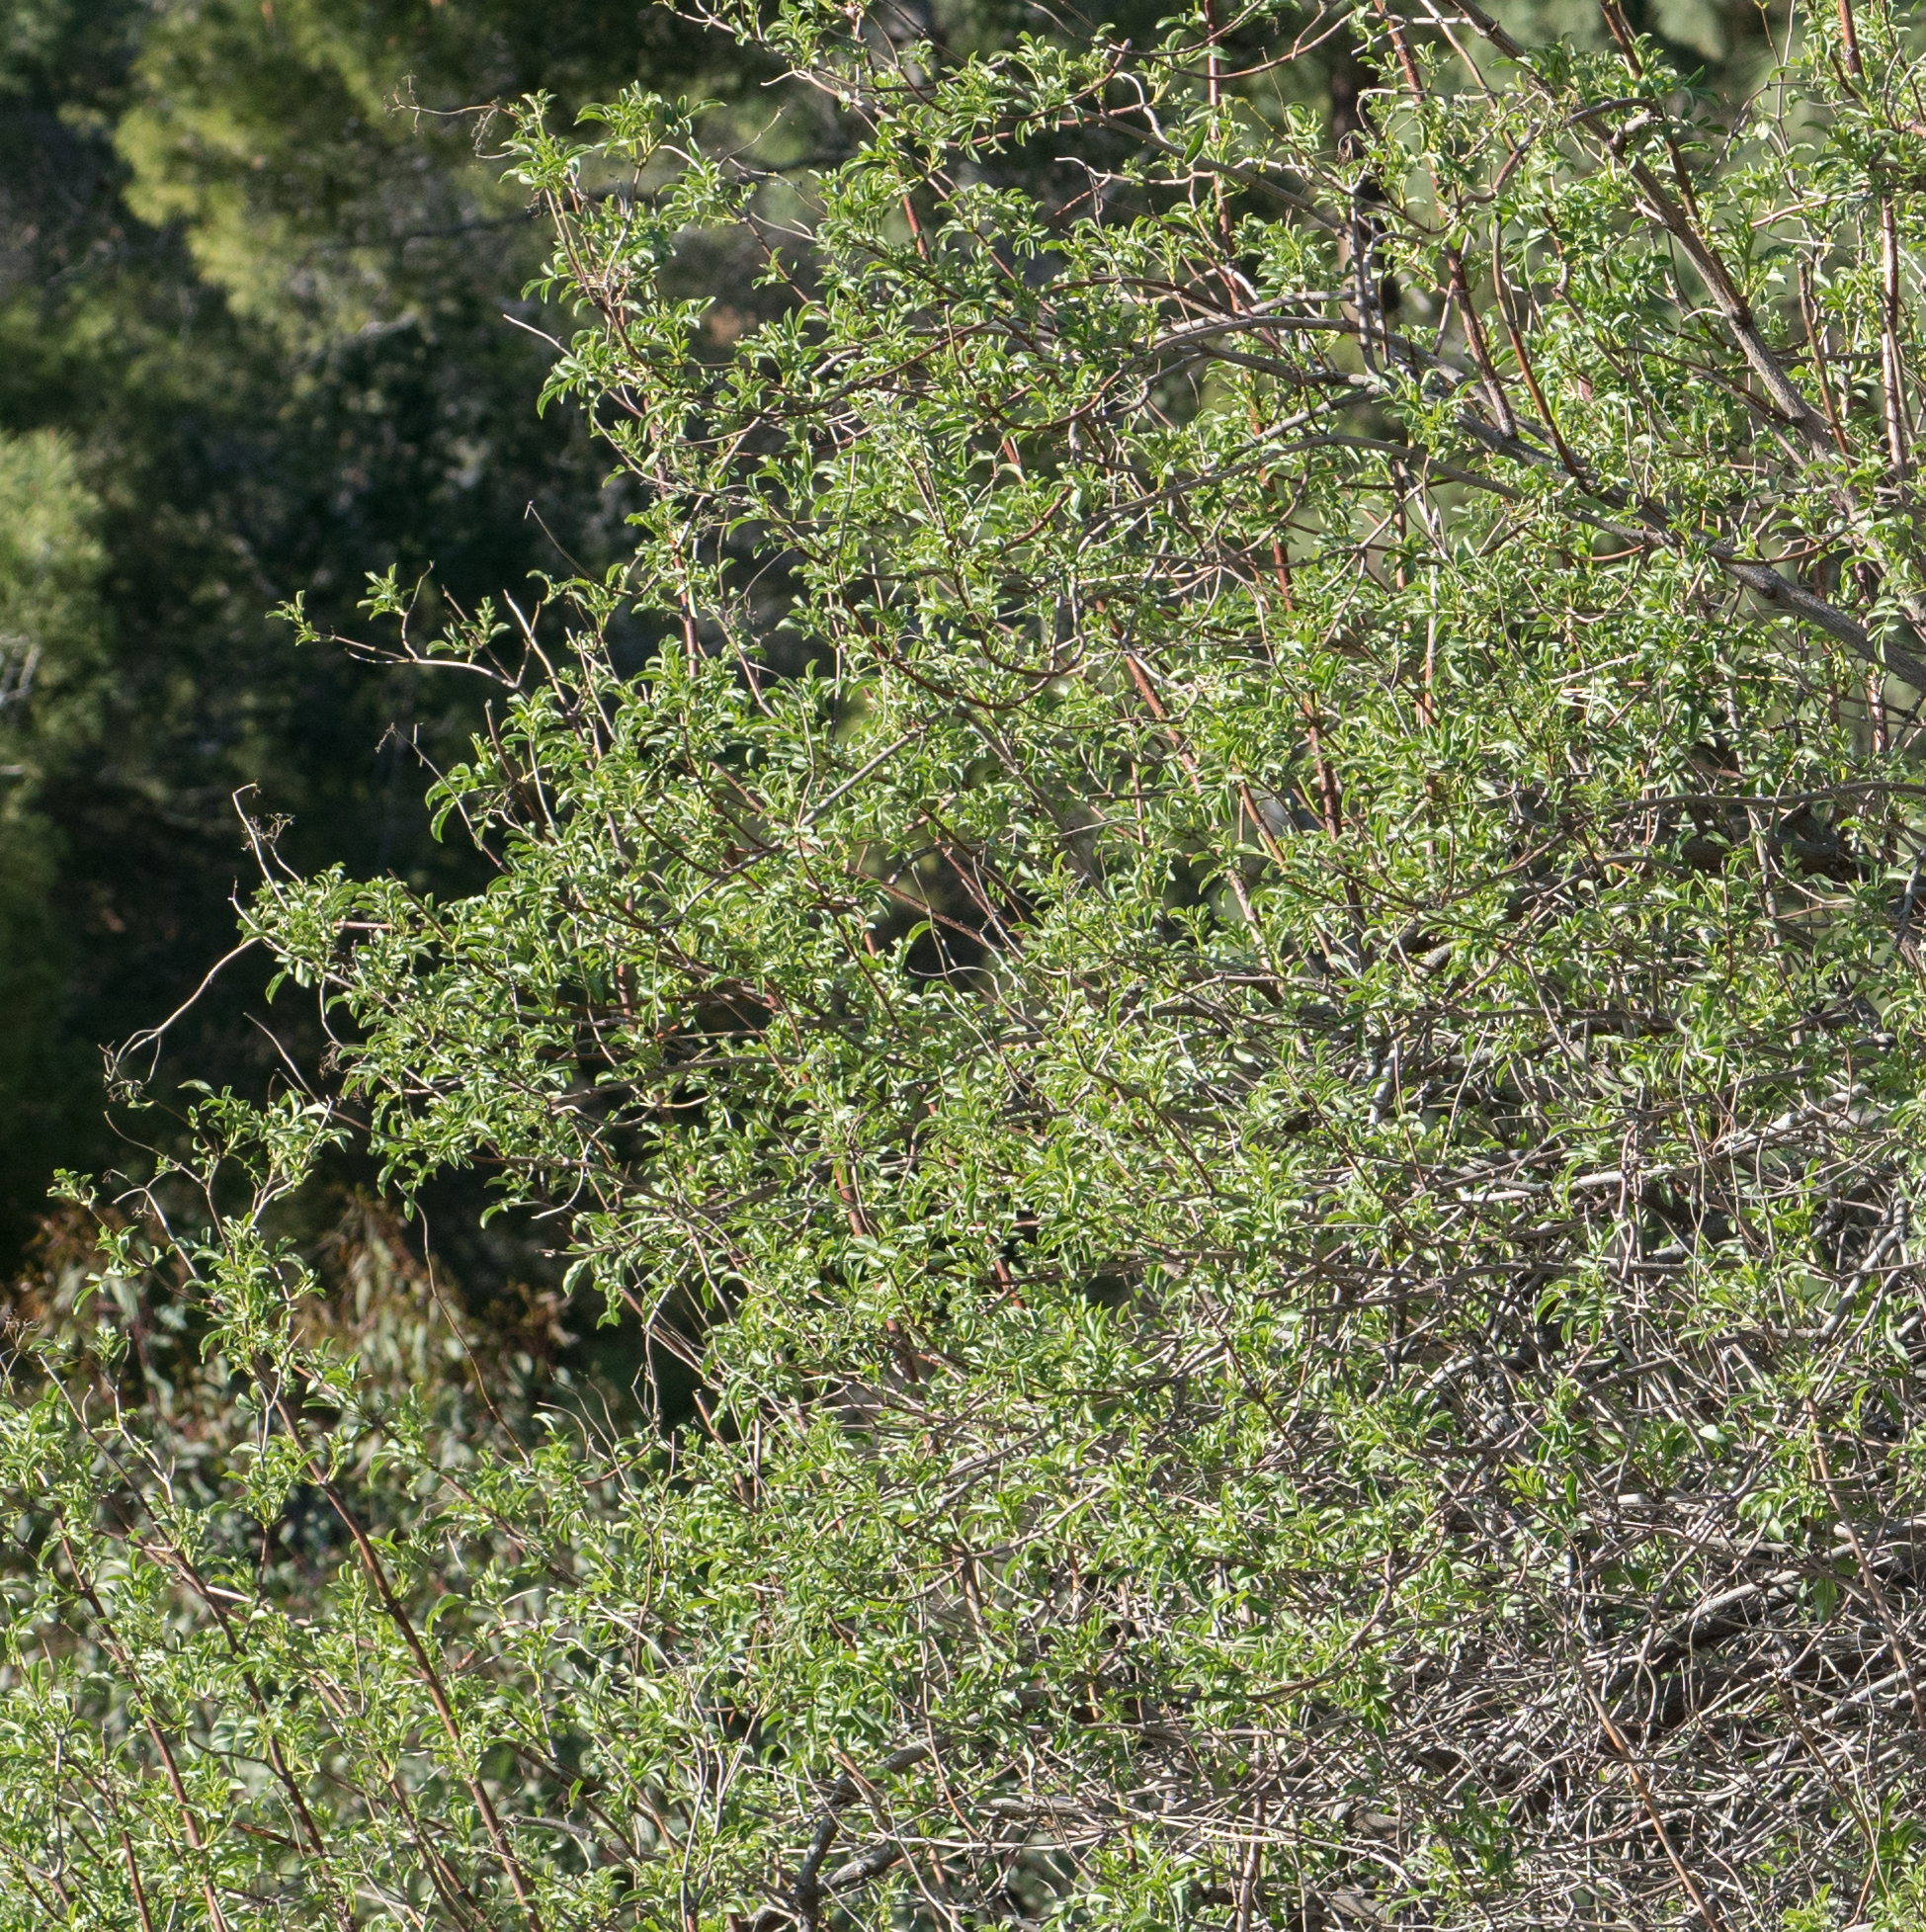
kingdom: Plantae
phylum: Tracheophyta
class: Magnoliopsida
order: Dipsacales
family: Viburnaceae
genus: Sambucus
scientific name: Sambucus cerulea
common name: Blue elder
